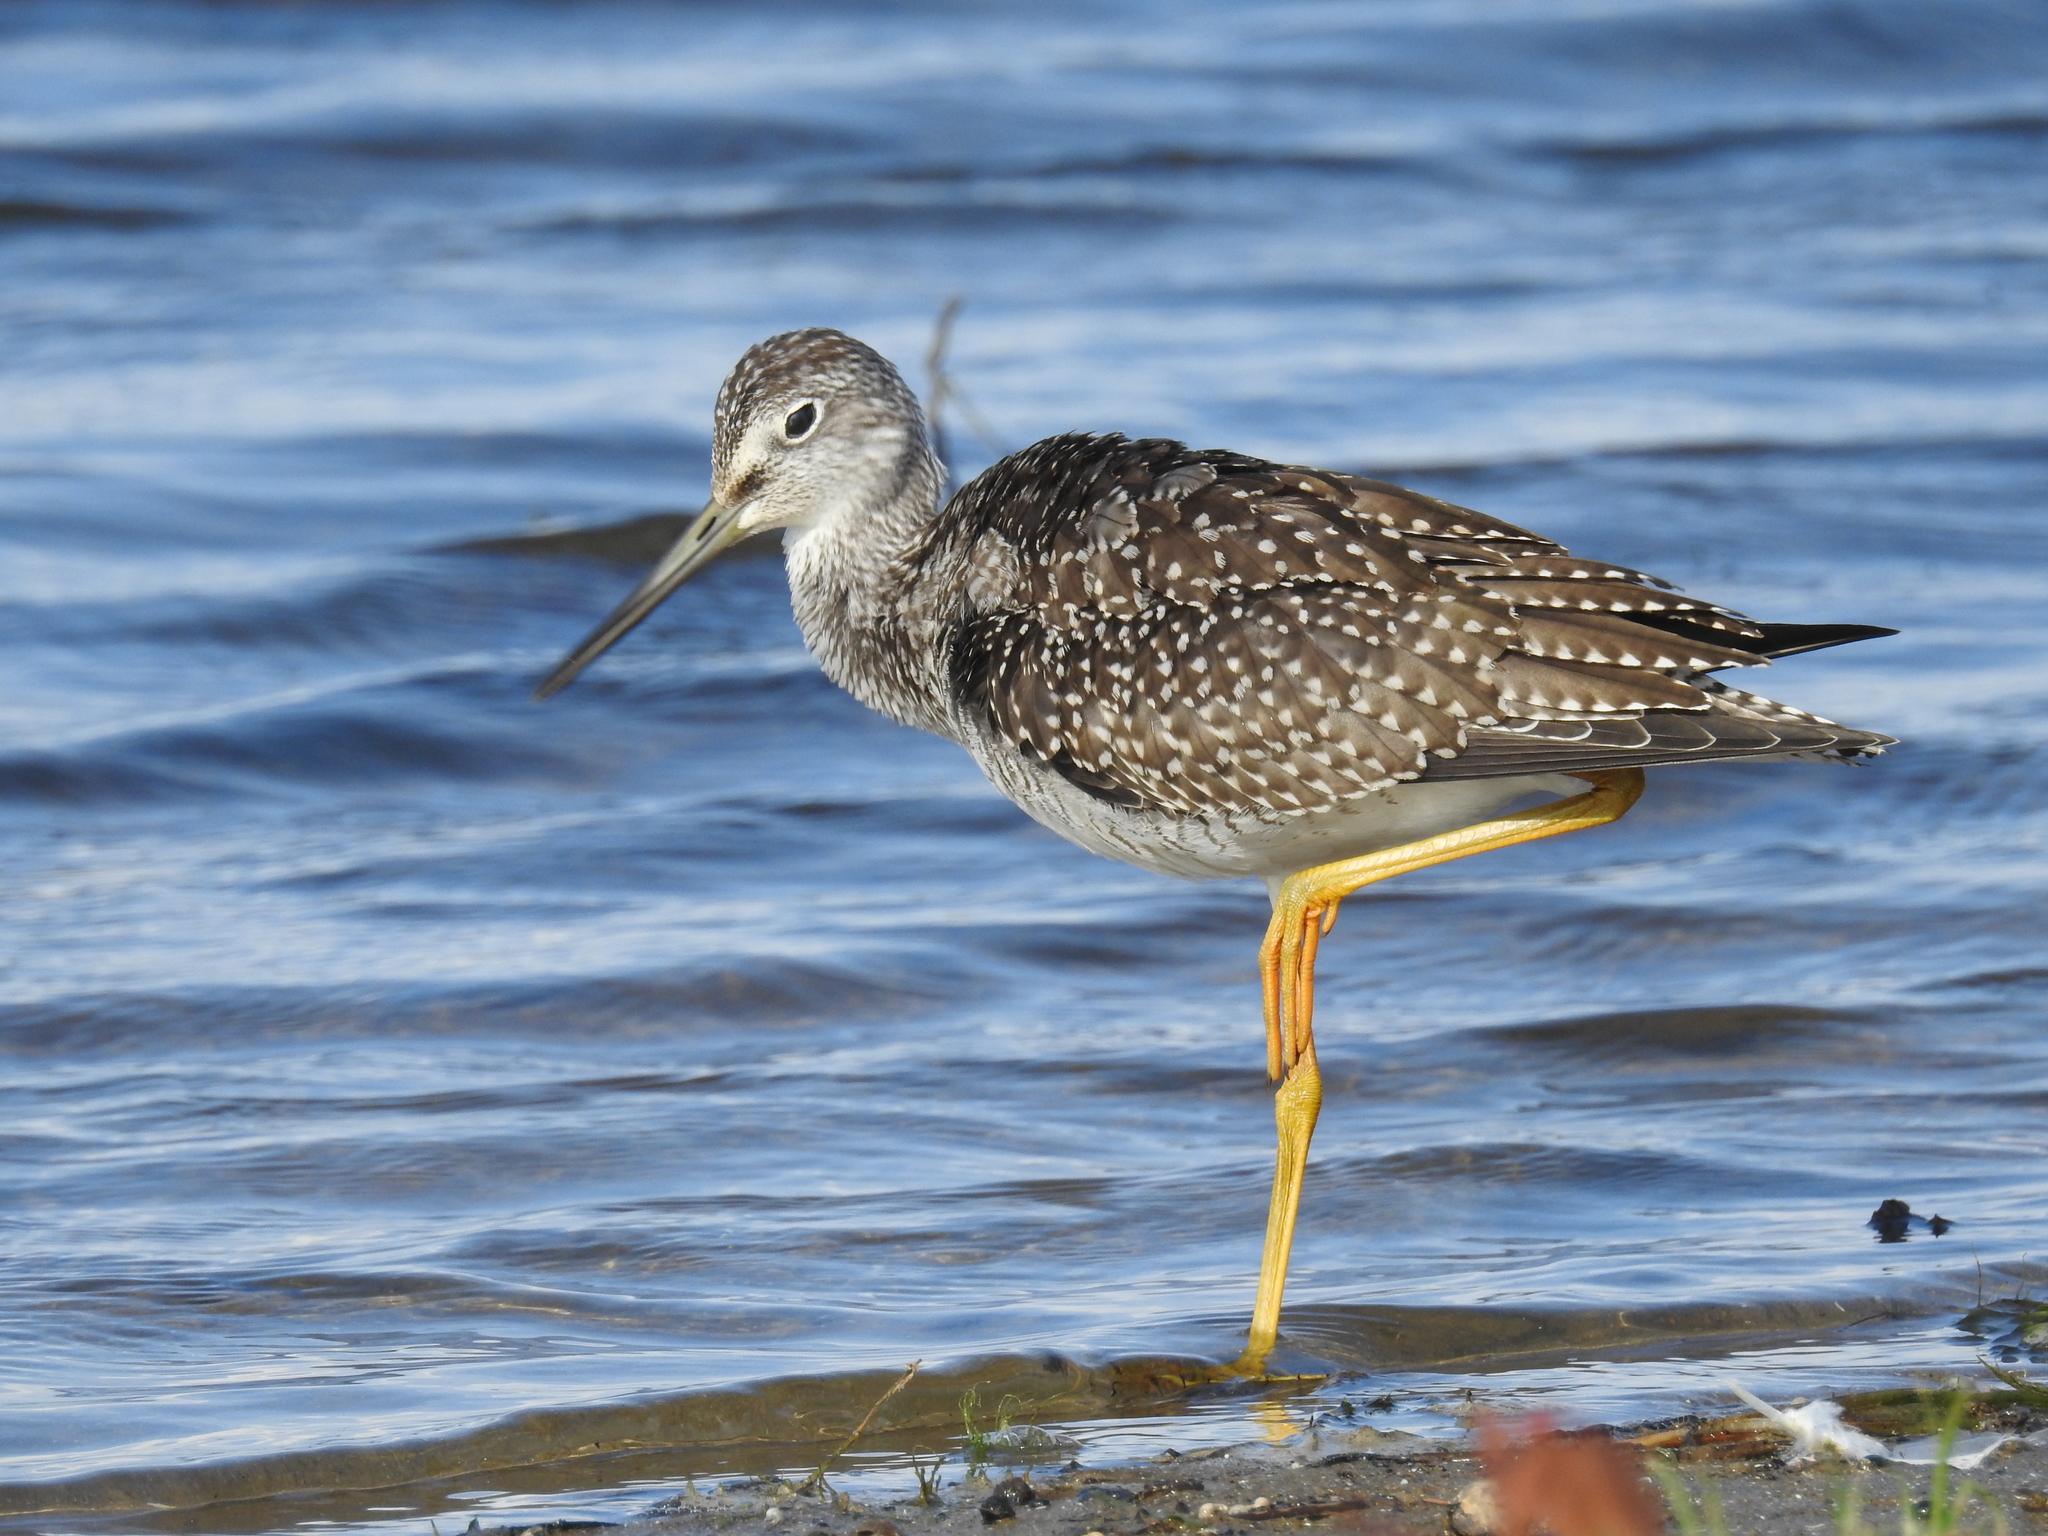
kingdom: Animalia
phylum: Chordata
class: Aves
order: Charadriiformes
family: Scolopacidae
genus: Tringa
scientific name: Tringa melanoleuca
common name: Greater yellowlegs
